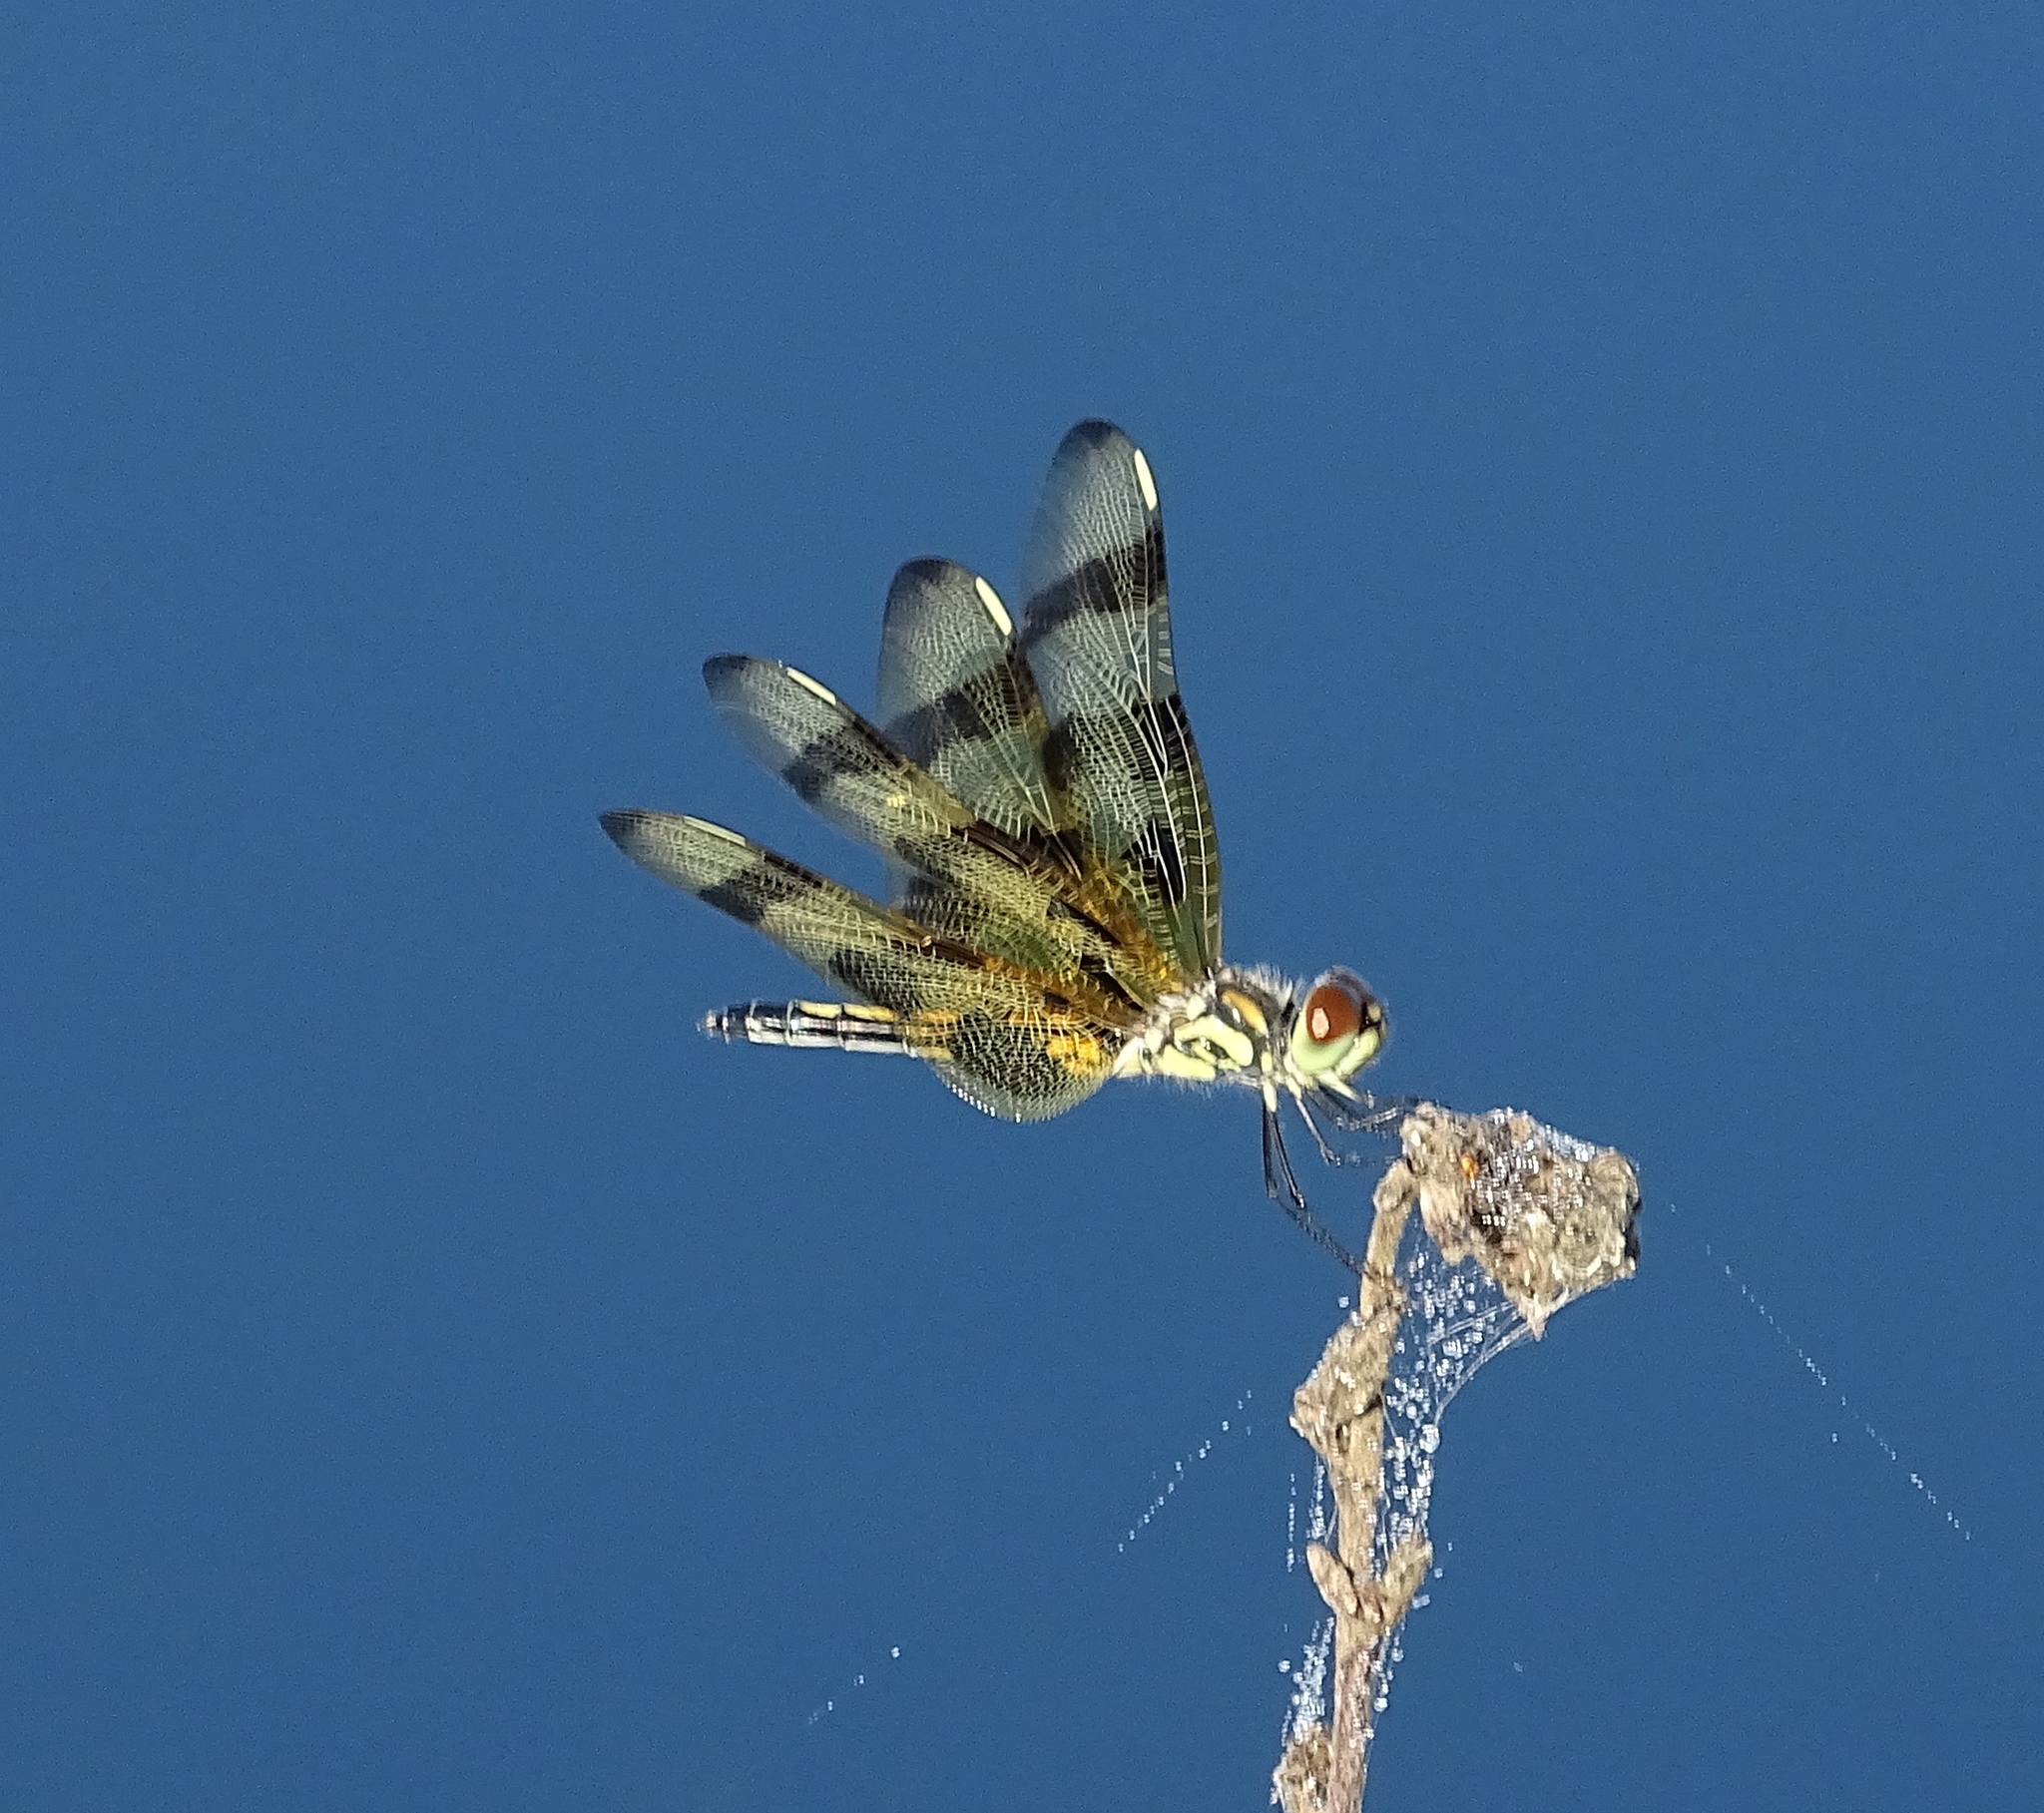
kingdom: Animalia
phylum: Arthropoda
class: Insecta
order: Odonata
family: Libellulidae
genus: Celithemis
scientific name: Celithemis eponina
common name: Halloween pennant
